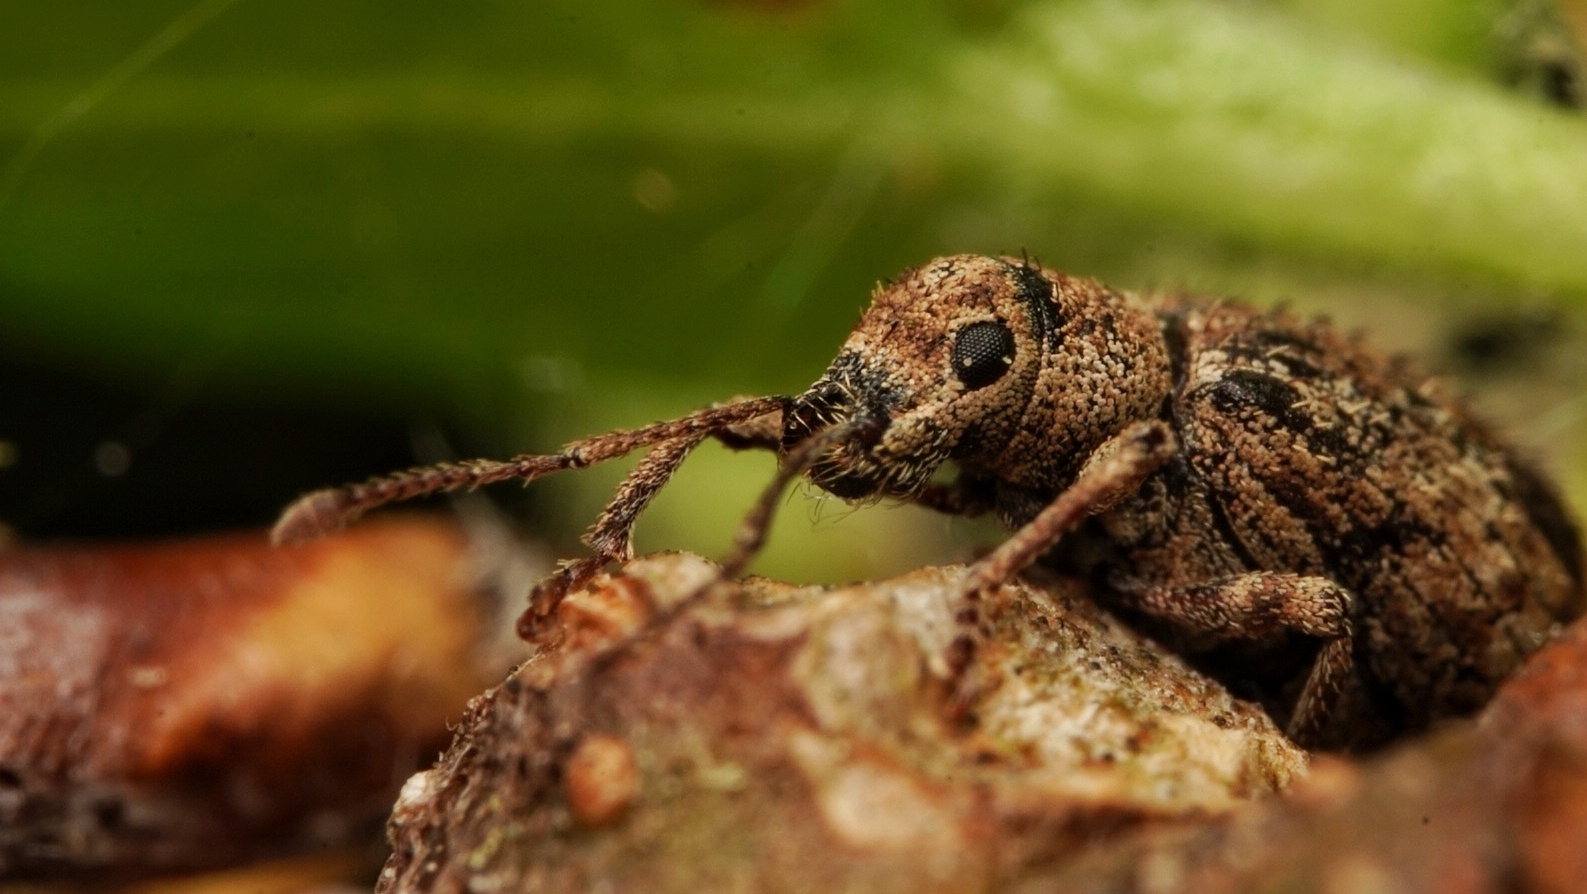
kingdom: Animalia
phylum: Arthropoda
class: Insecta
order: Coleoptera
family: Curculionidae
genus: Pseudoedophrys
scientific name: Pseudoedophrys hilleri
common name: Weevil
